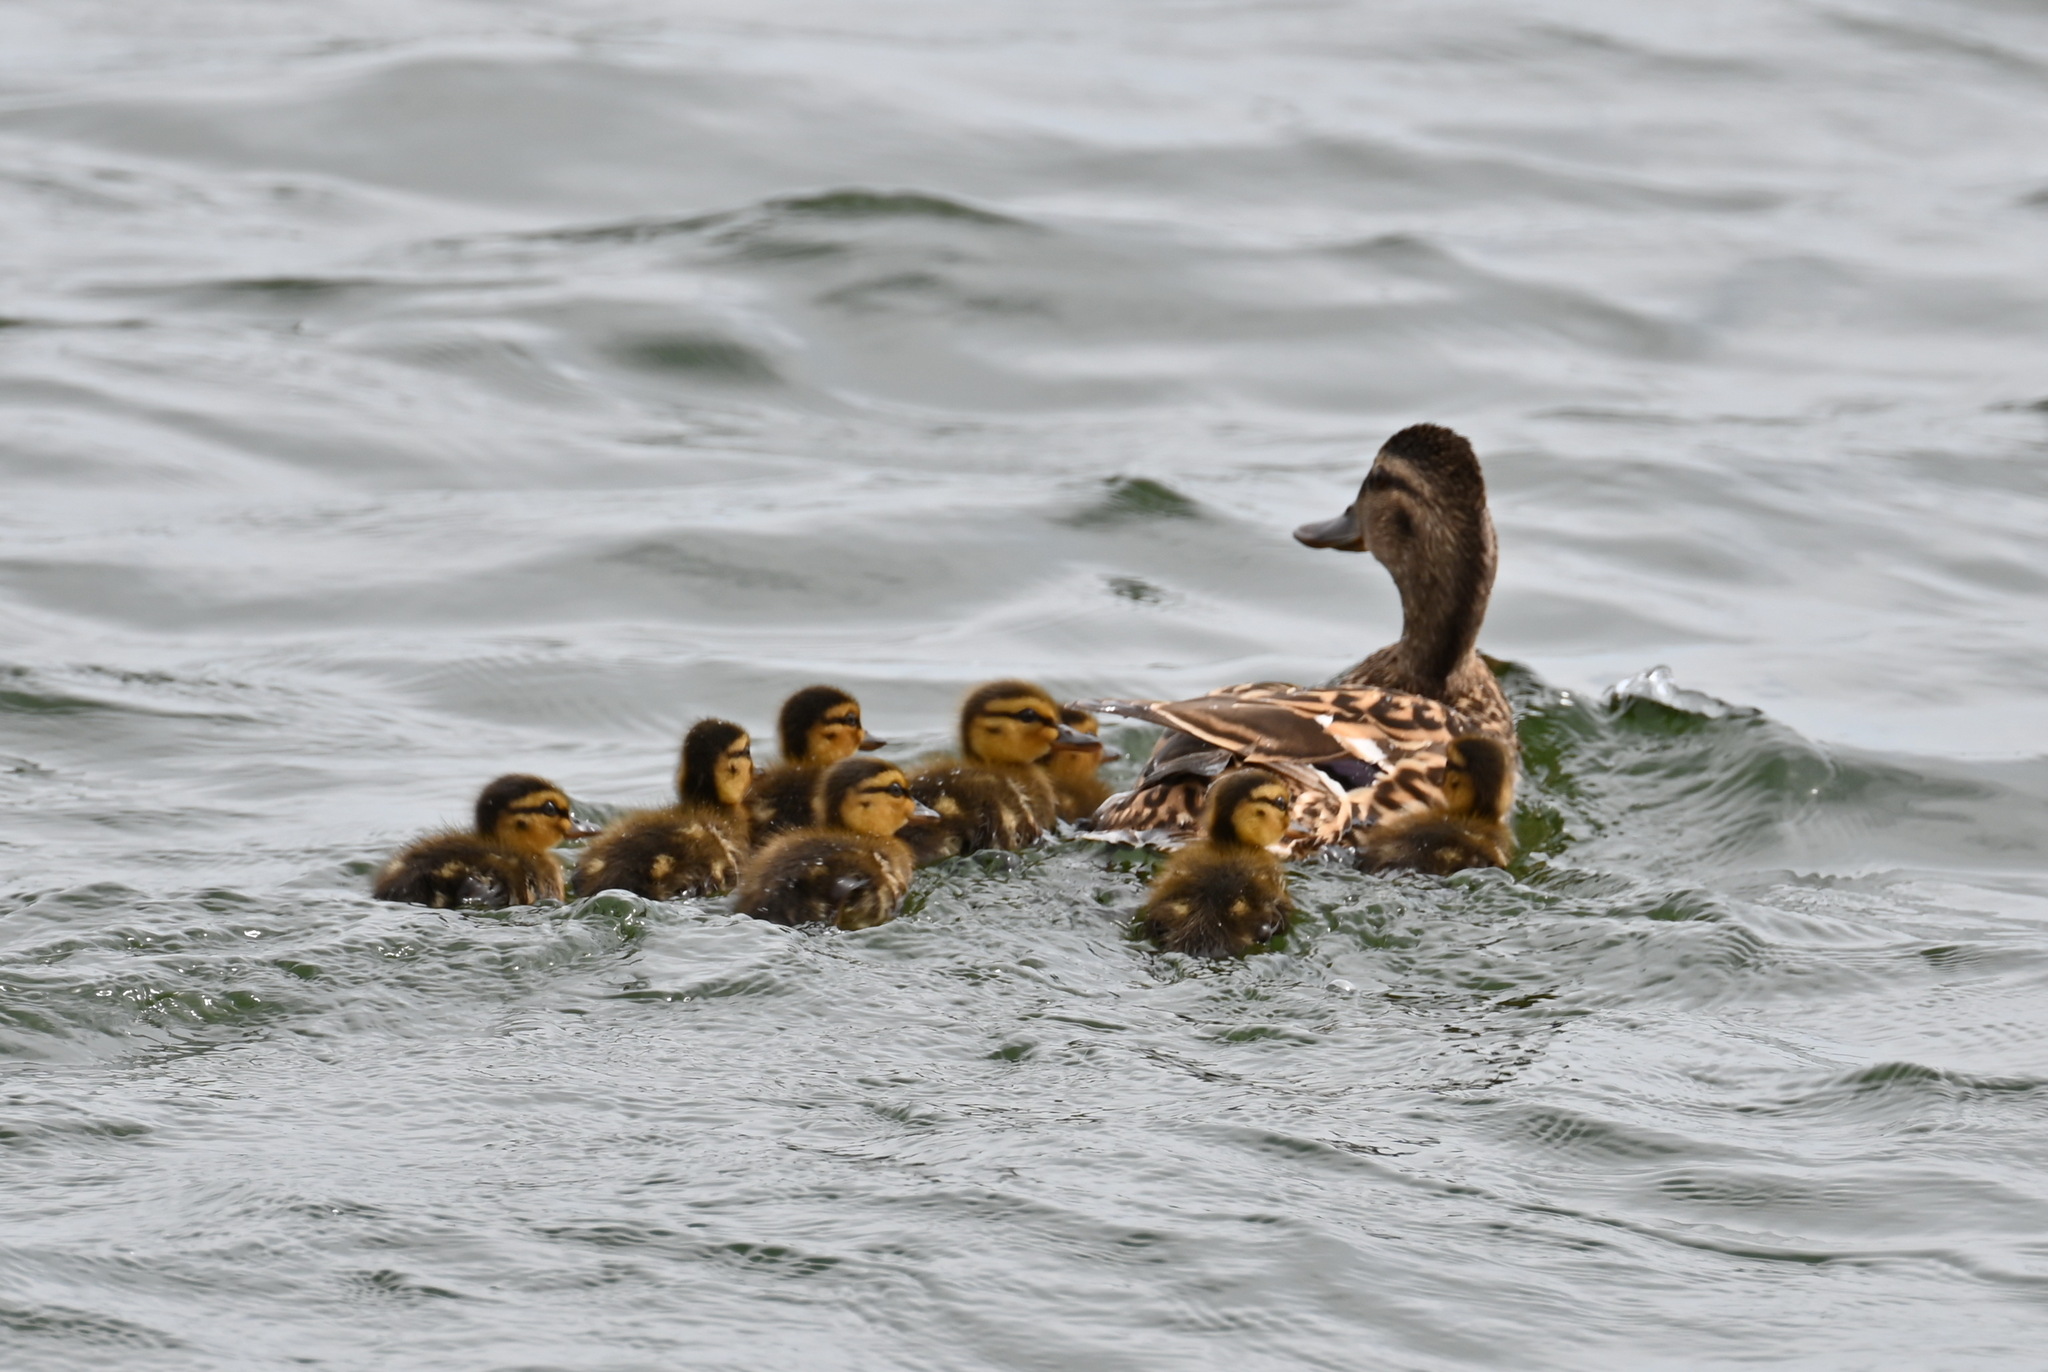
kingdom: Animalia
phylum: Chordata
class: Aves
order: Anseriformes
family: Anatidae
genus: Anas
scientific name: Anas platyrhynchos
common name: Mallard
